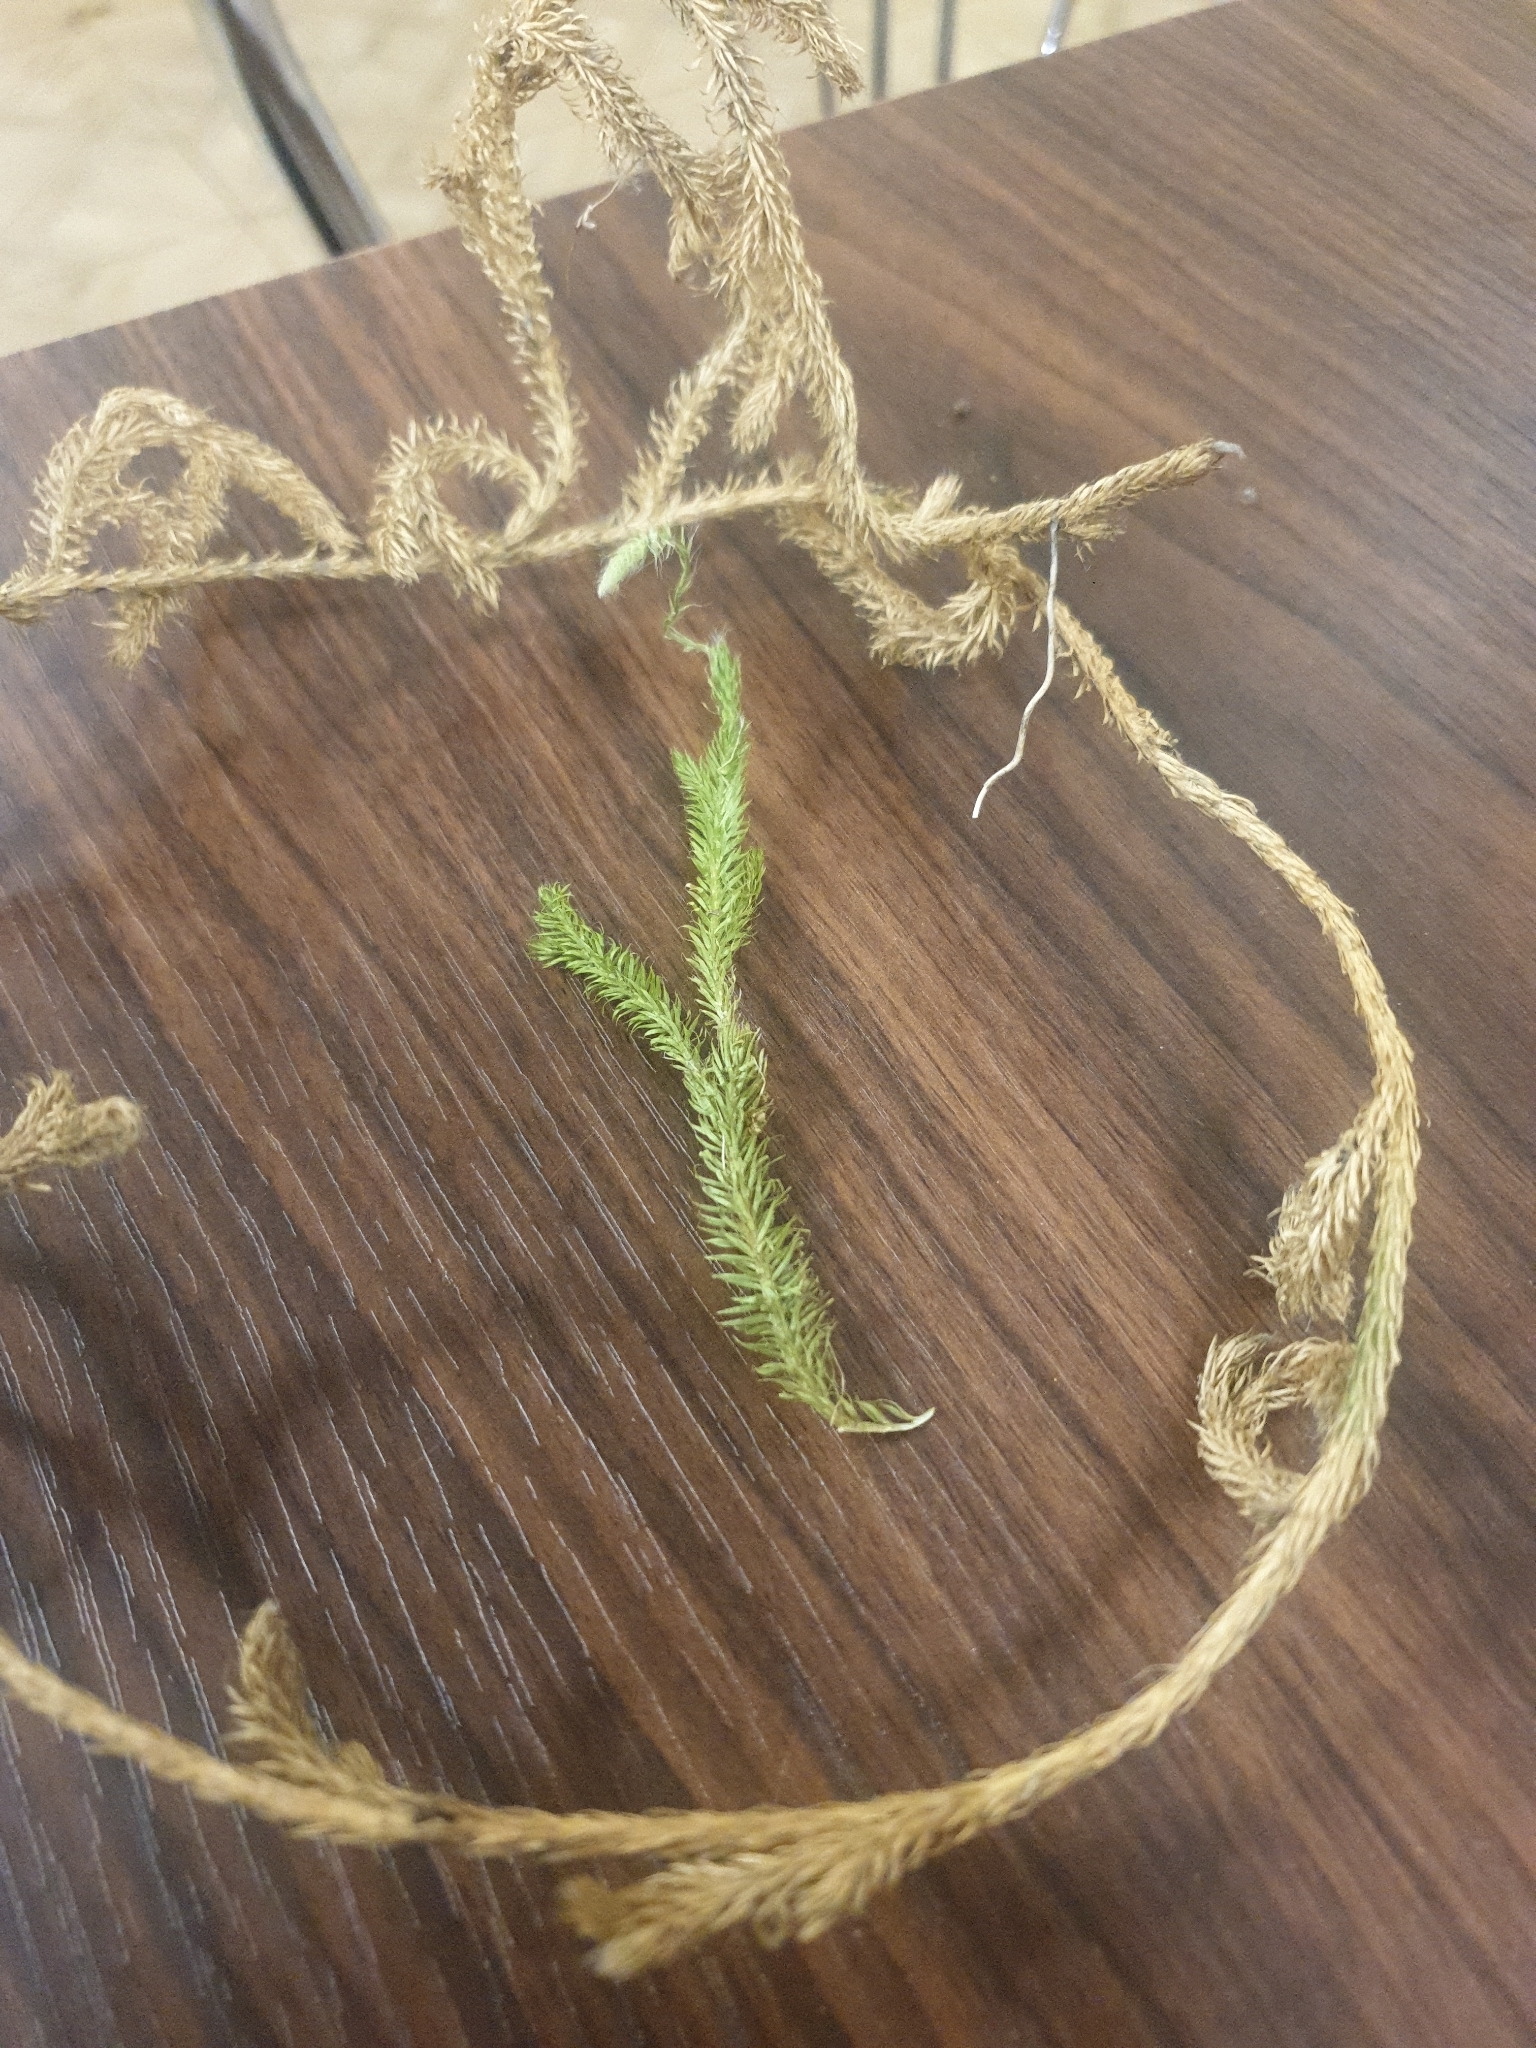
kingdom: Plantae
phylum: Tracheophyta
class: Lycopodiopsida
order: Lycopodiales
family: Lycopodiaceae
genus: Lycopodium
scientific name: Lycopodium clavatum
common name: Stag's-horn clubmoss
